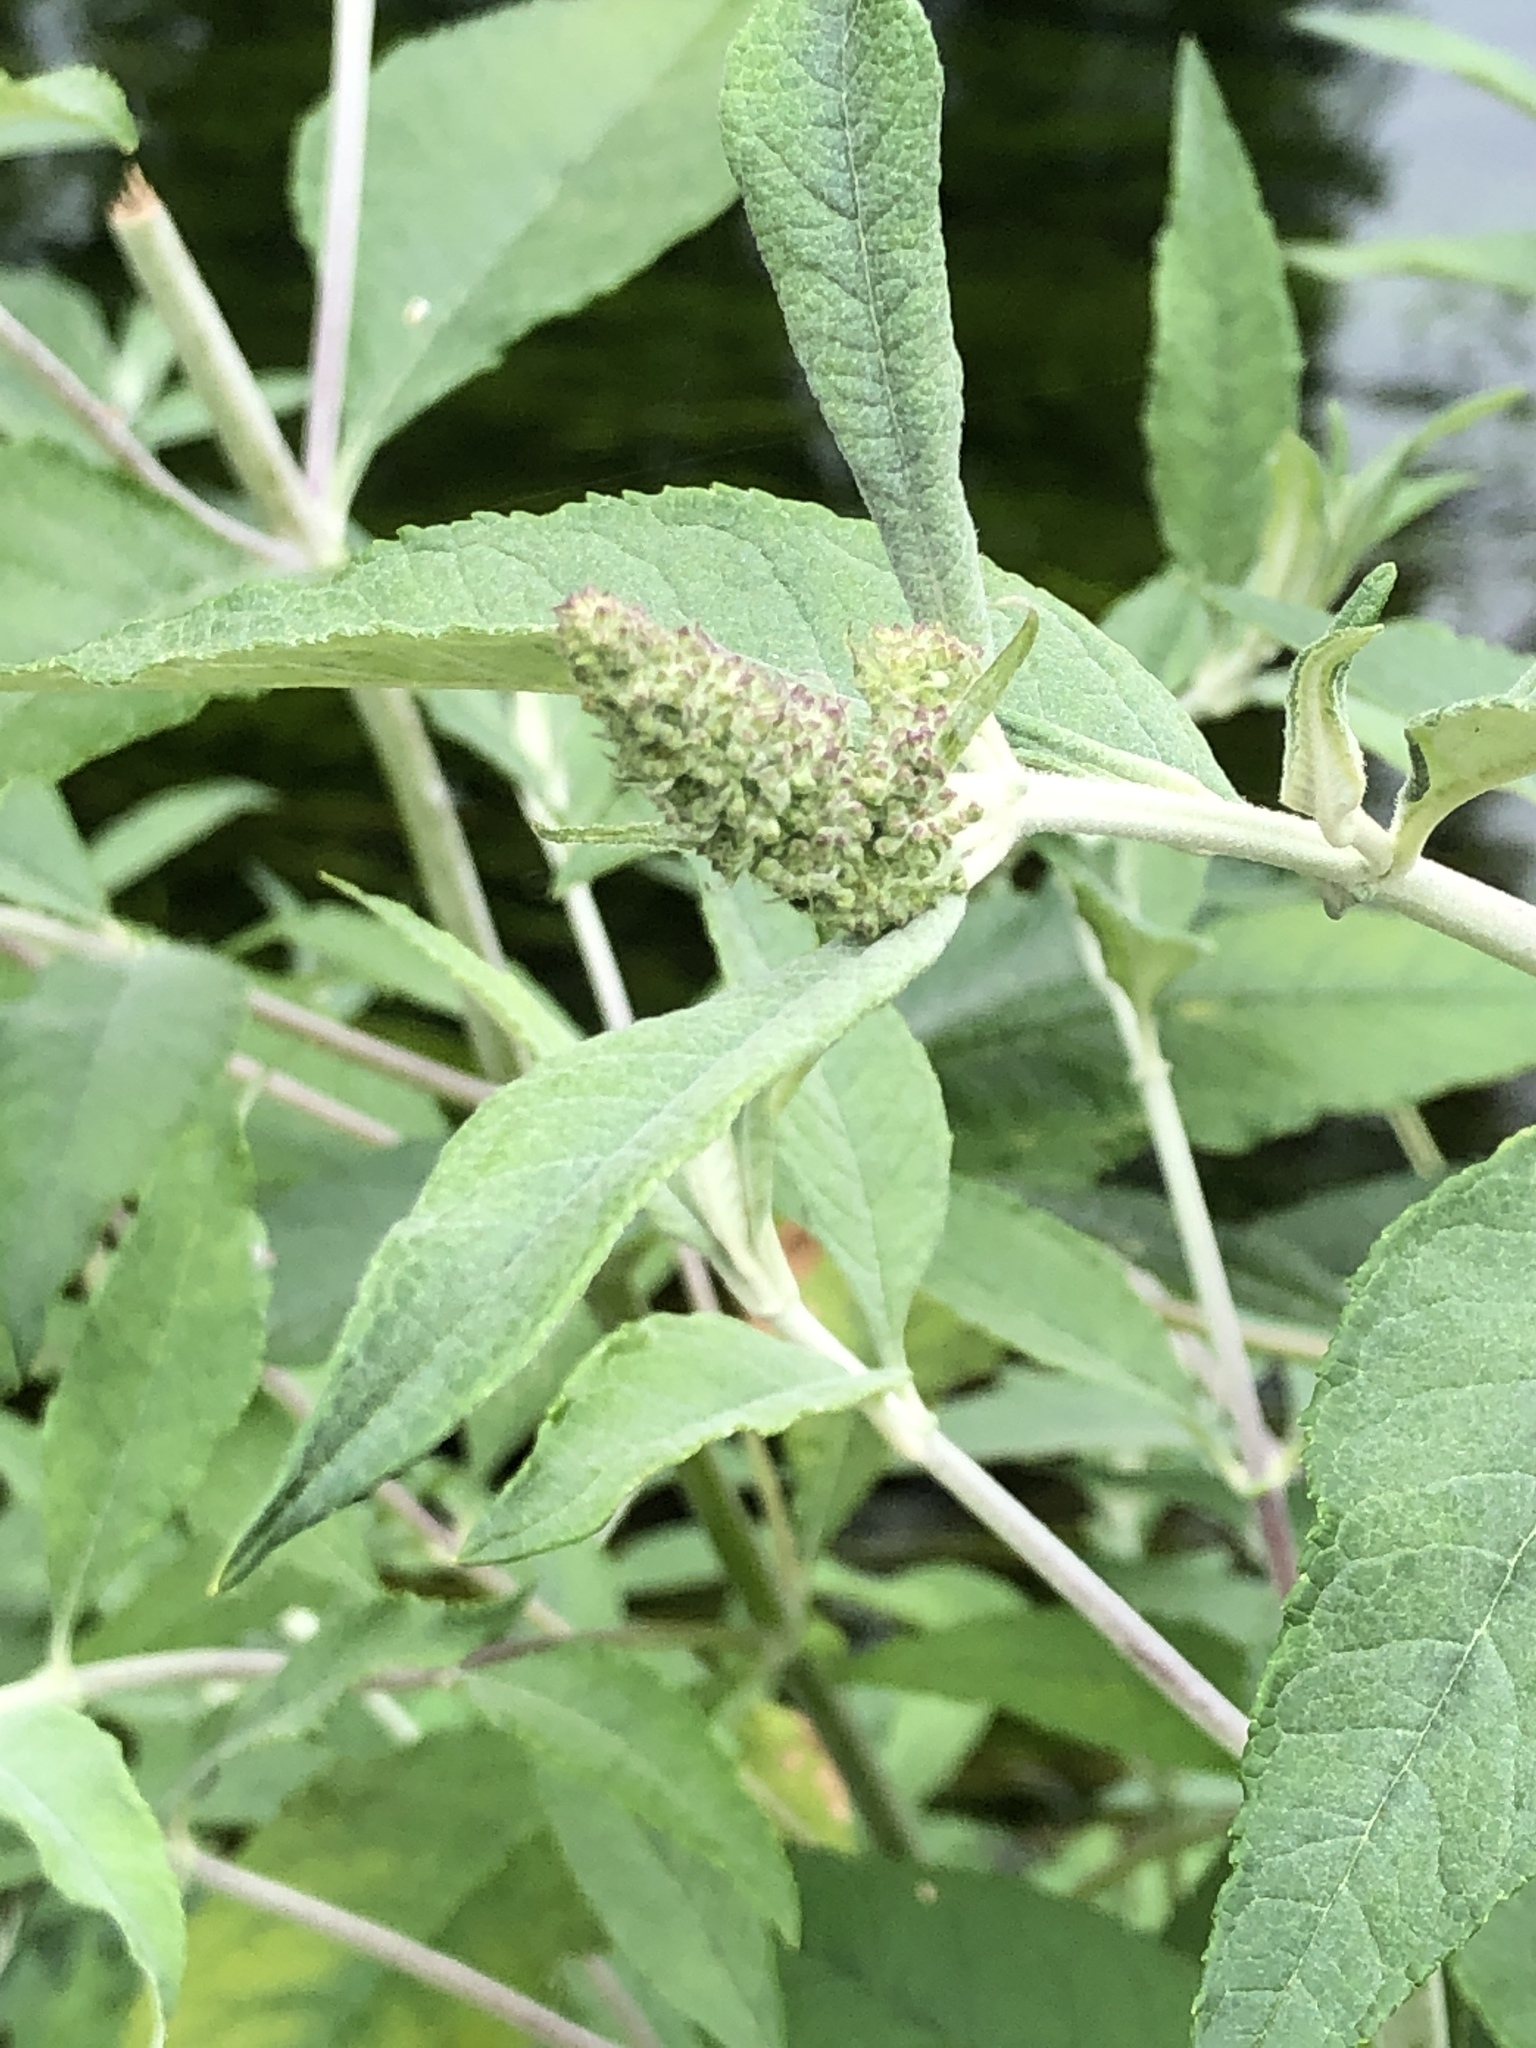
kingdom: Plantae
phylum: Tracheophyta
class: Magnoliopsida
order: Lamiales
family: Scrophulariaceae
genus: Buddleja
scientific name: Buddleja davidii
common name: Butterfly-bush
